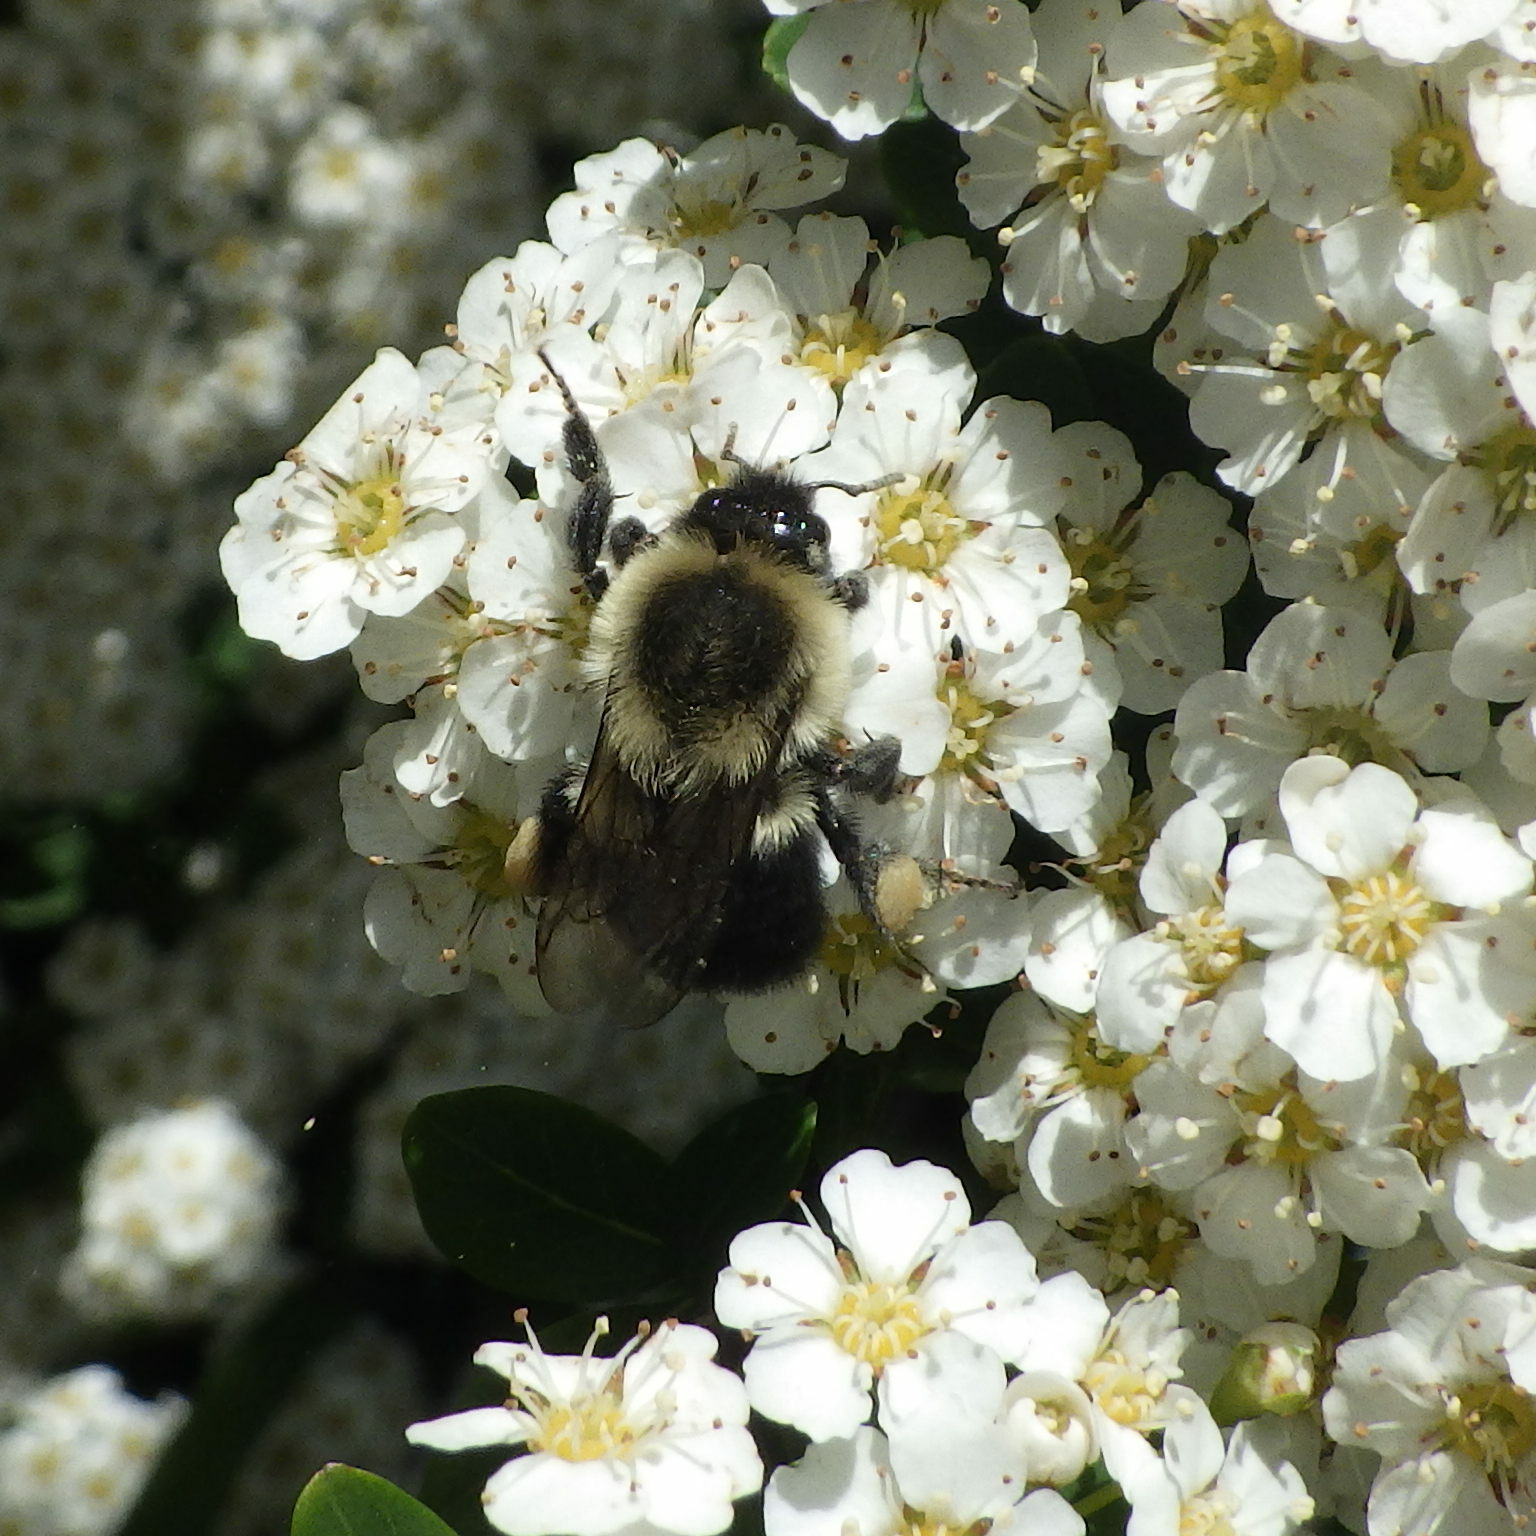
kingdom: Animalia
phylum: Arthropoda
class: Insecta
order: Hymenoptera
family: Apidae
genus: Bombus
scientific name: Bombus impatiens
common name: Common eastern bumble bee
